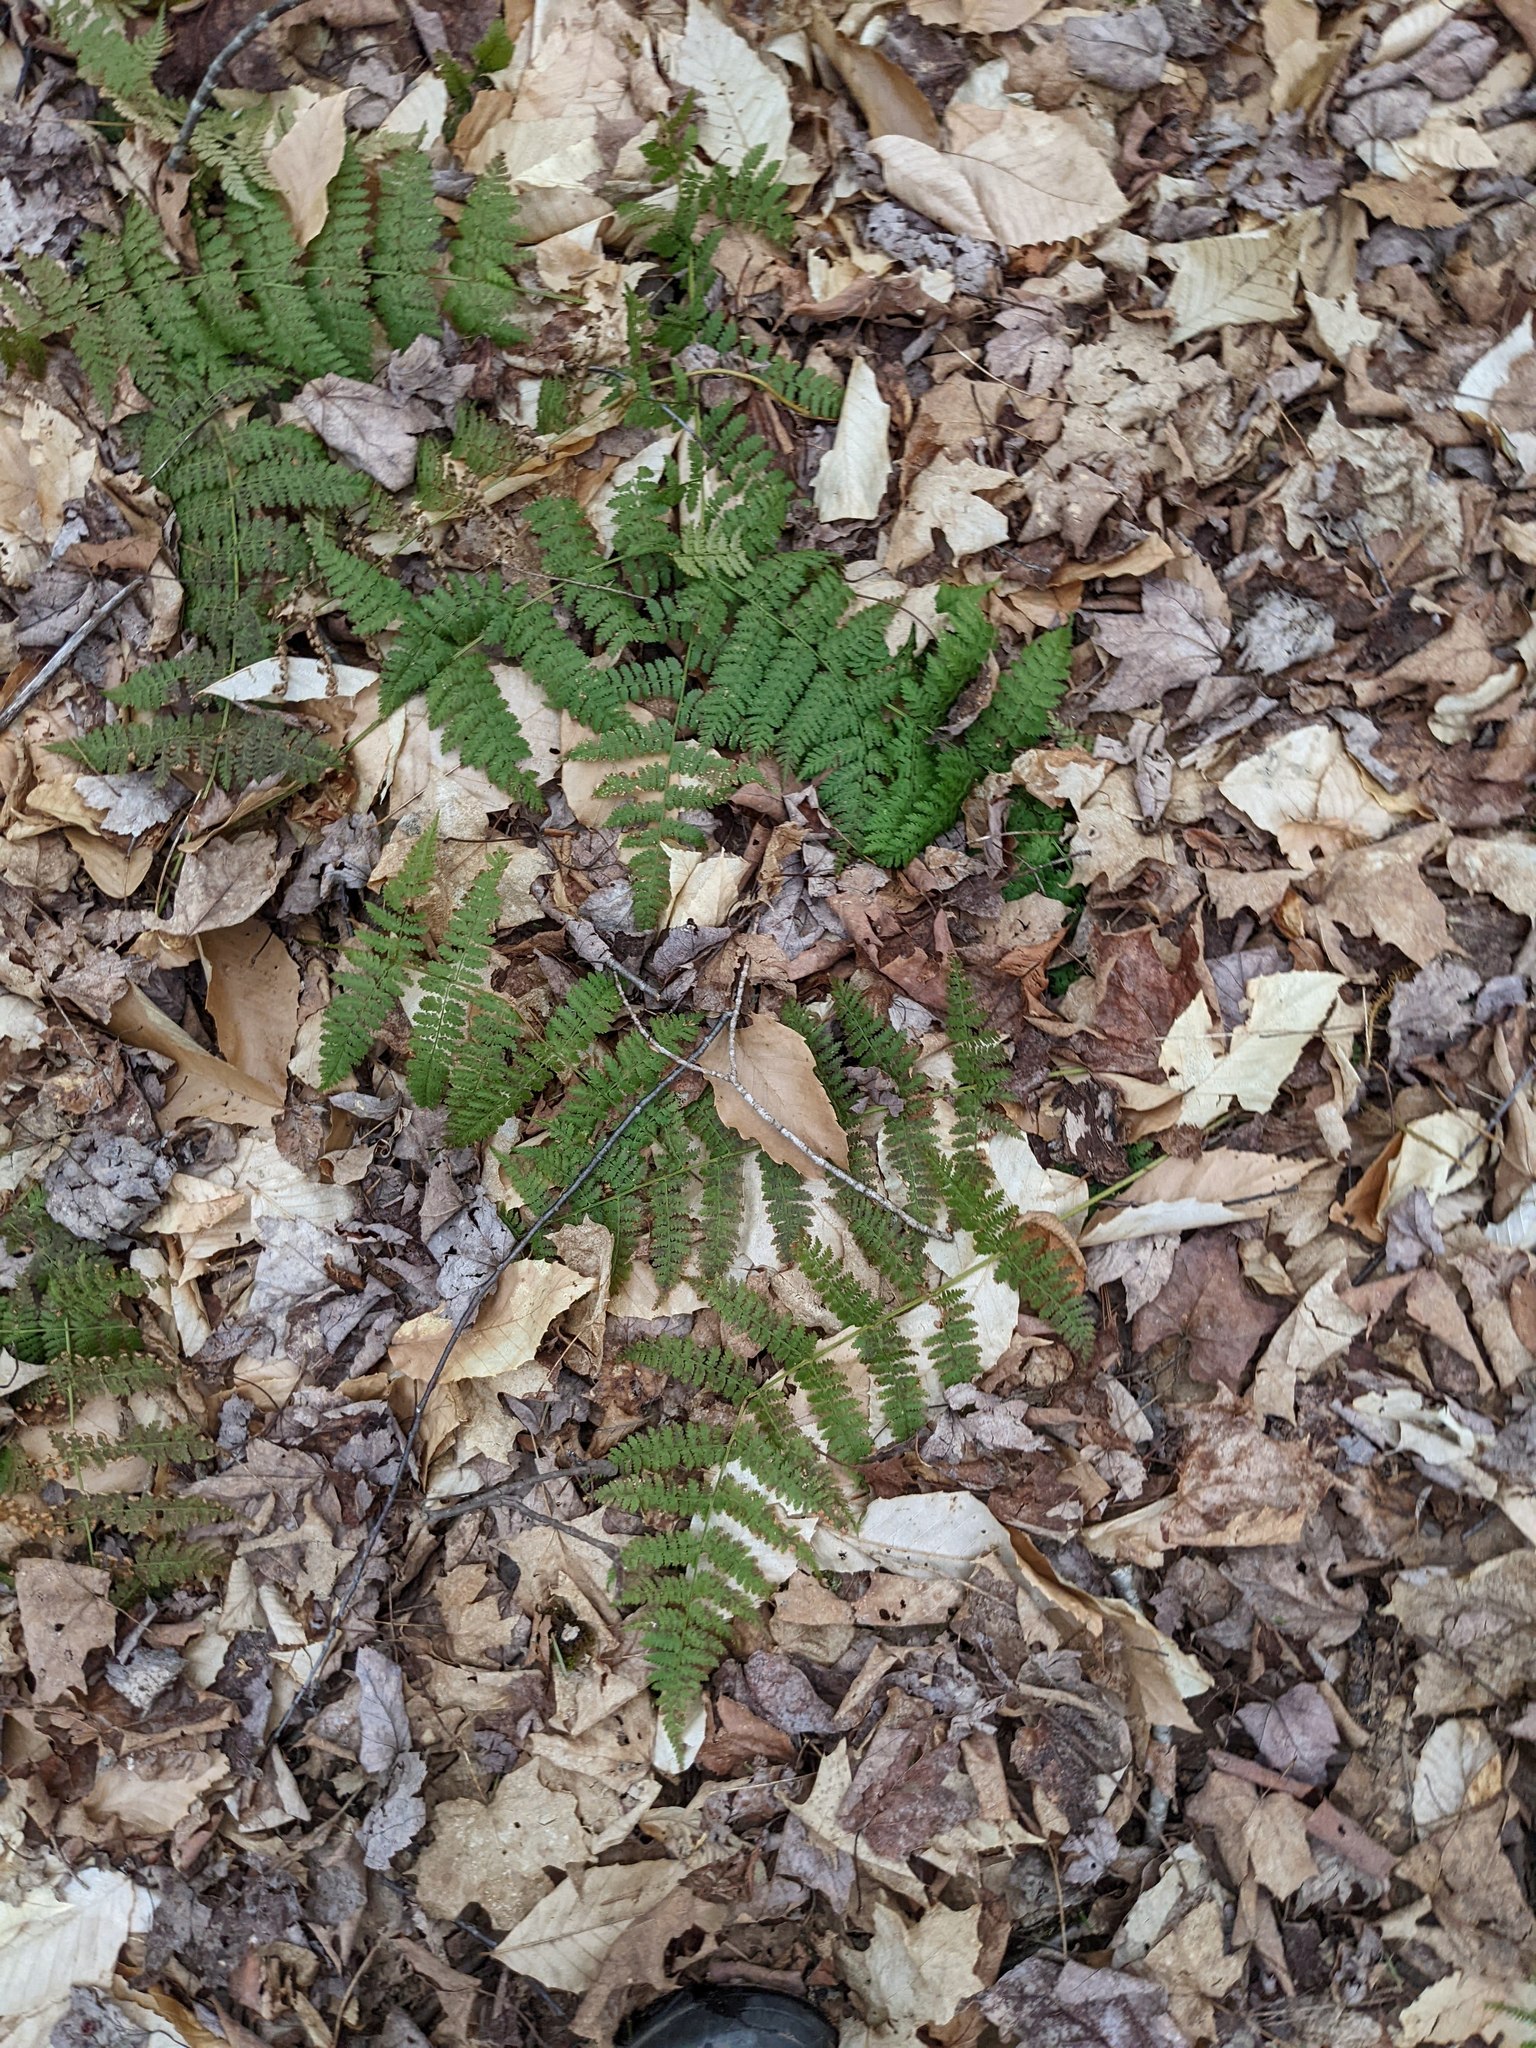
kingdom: Plantae
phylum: Tracheophyta
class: Polypodiopsida
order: Polypodiales
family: Dryopteridaceae
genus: Dryopteris
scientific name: Dryopteris intermedia
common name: Evergreen wood fern
